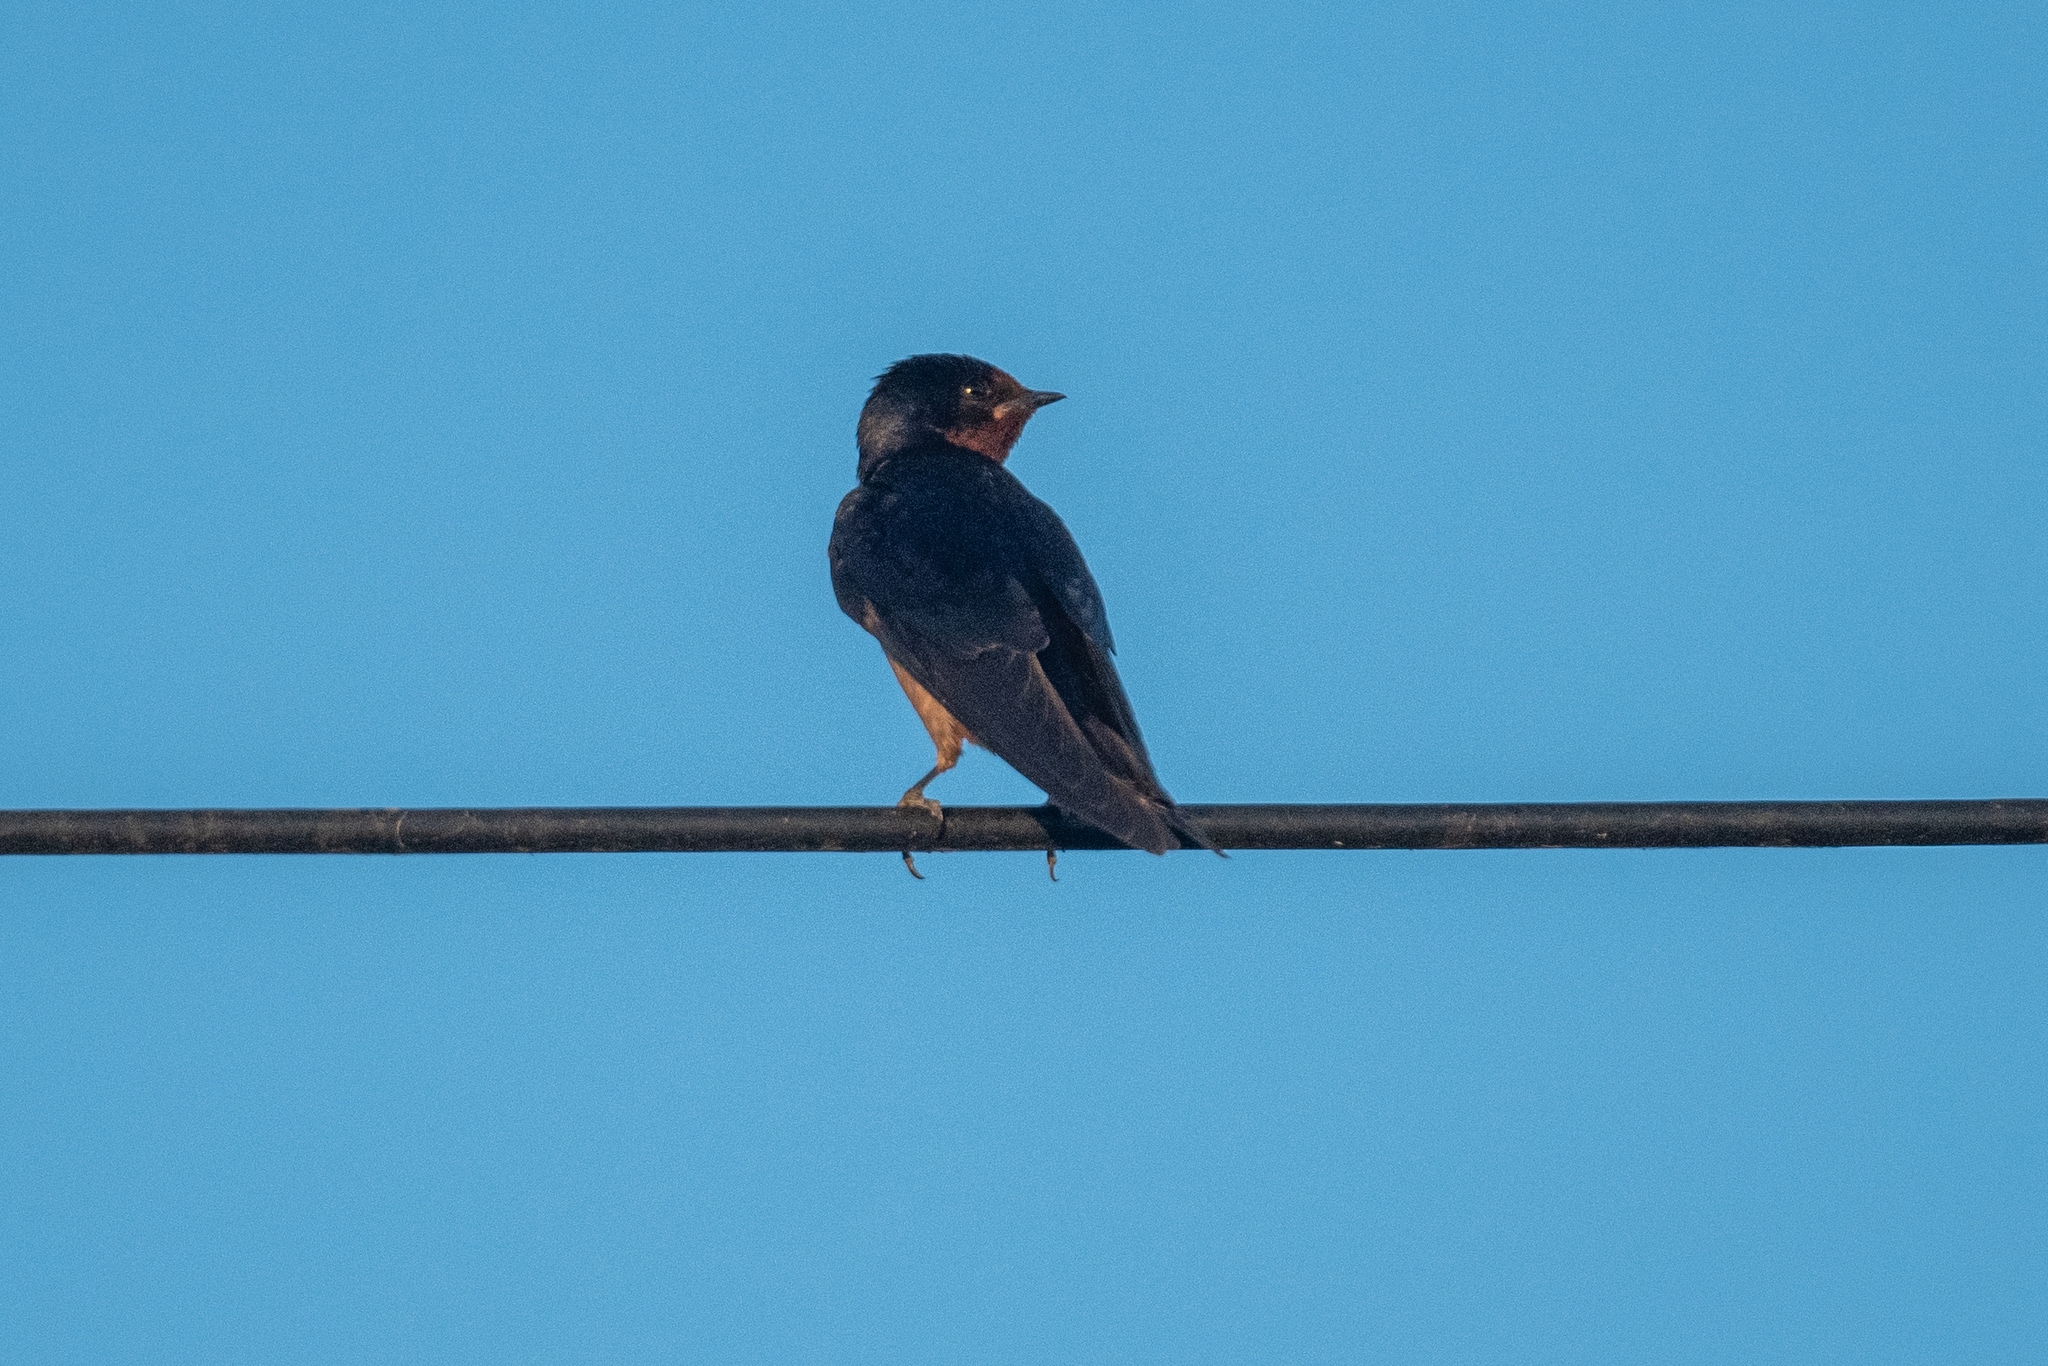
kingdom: Animalia
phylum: Chordata
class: Aves
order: Passeriformes
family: Hirundinidae
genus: Hirundo
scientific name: Hirundo rustica
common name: Barn swallow
